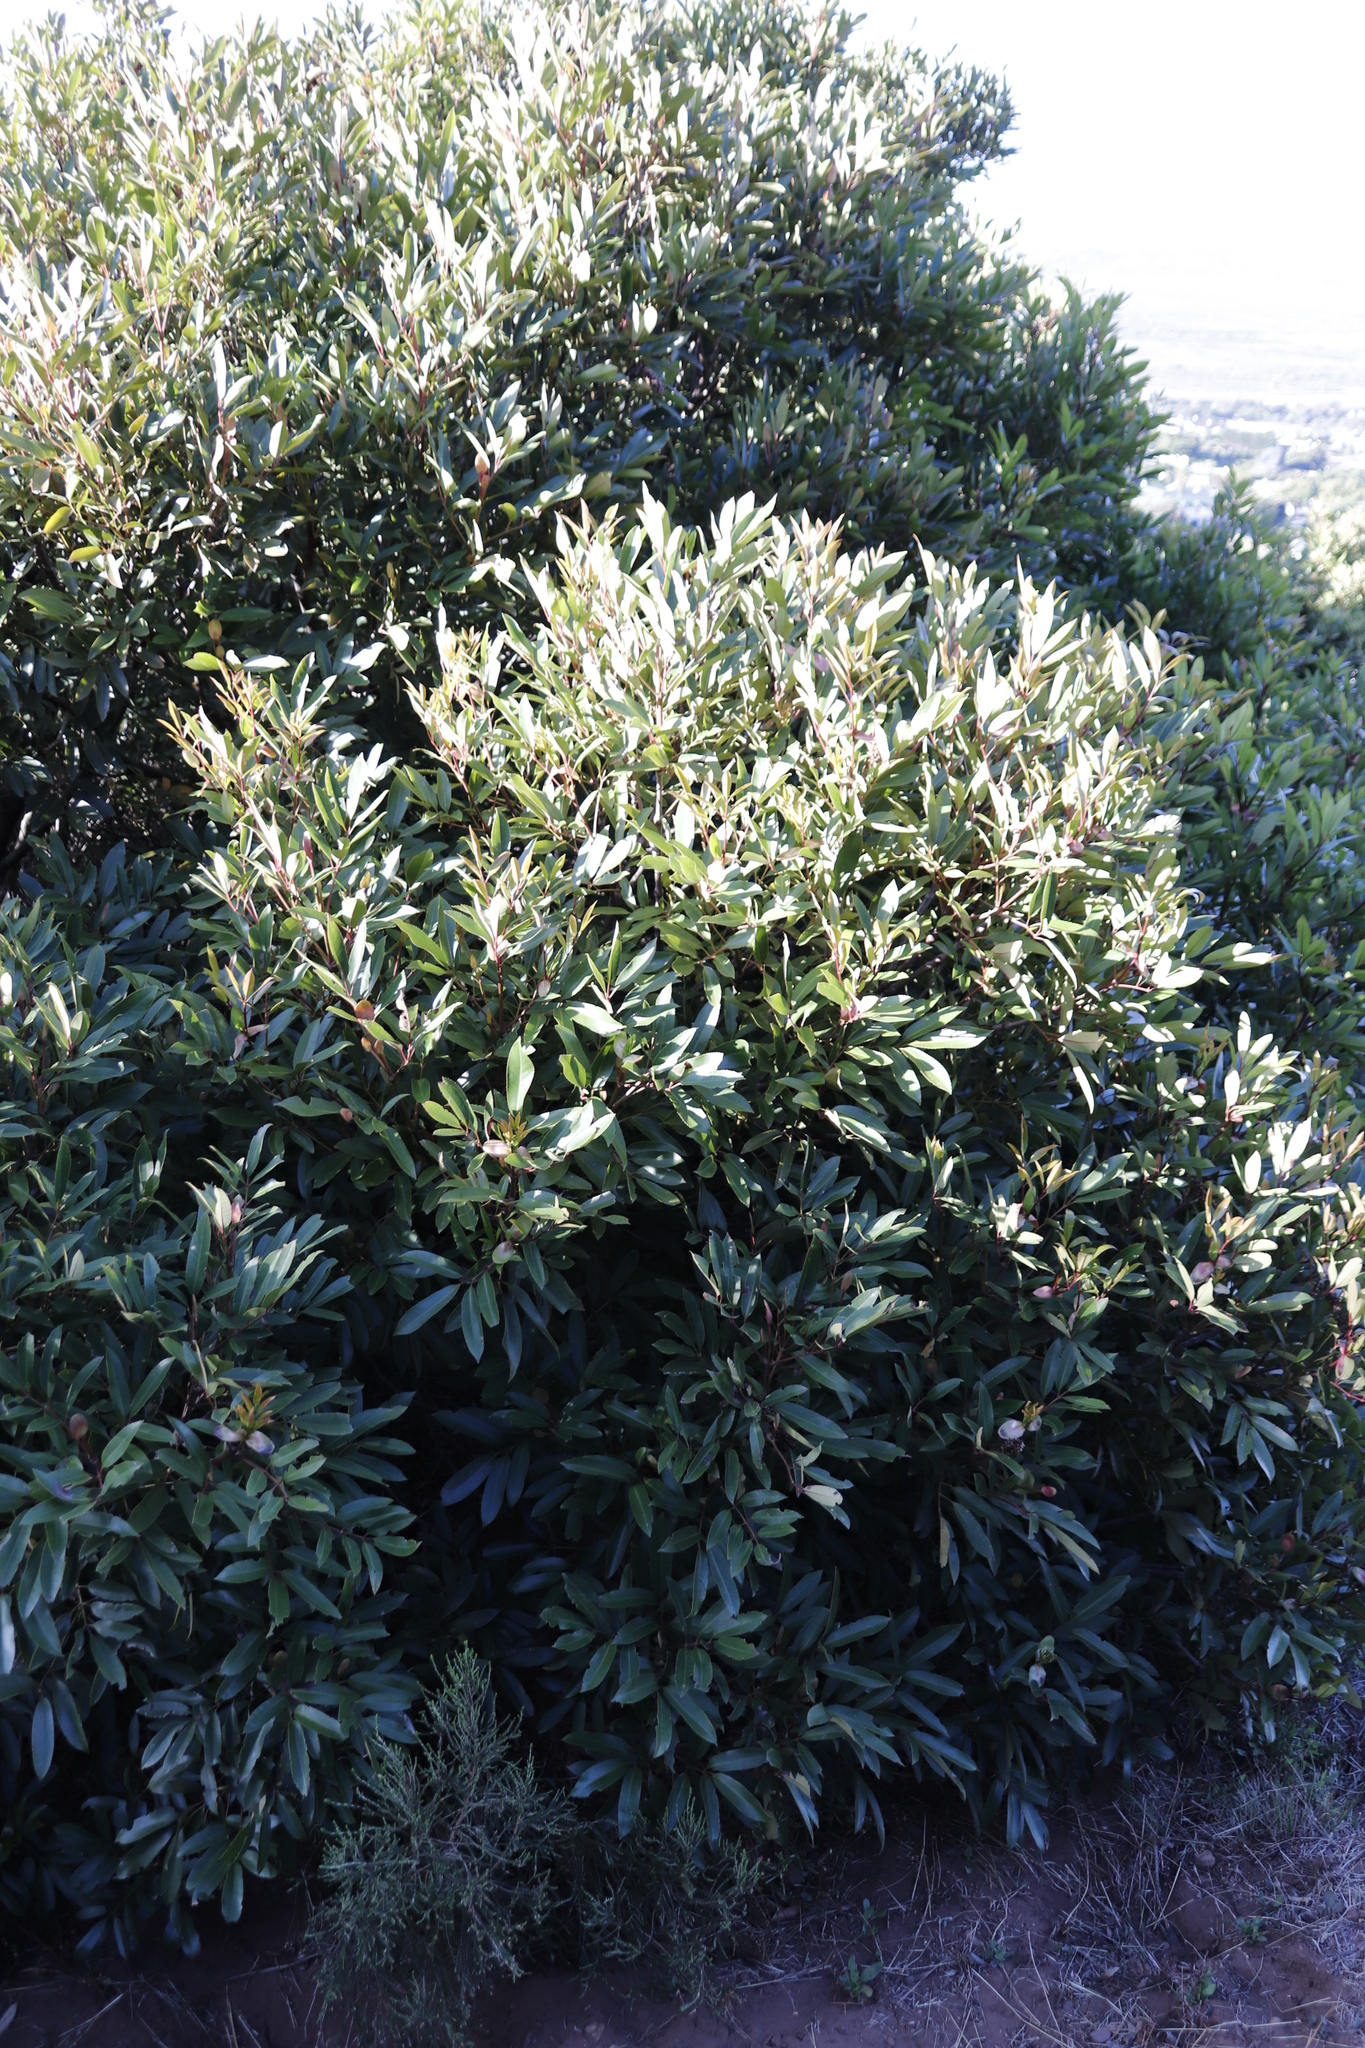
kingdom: Plantae
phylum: Tracheophyta
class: Magnoliopsida
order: Oxalidales
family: Cunoniaceae
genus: Cunonia
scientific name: Cunonia capensis
